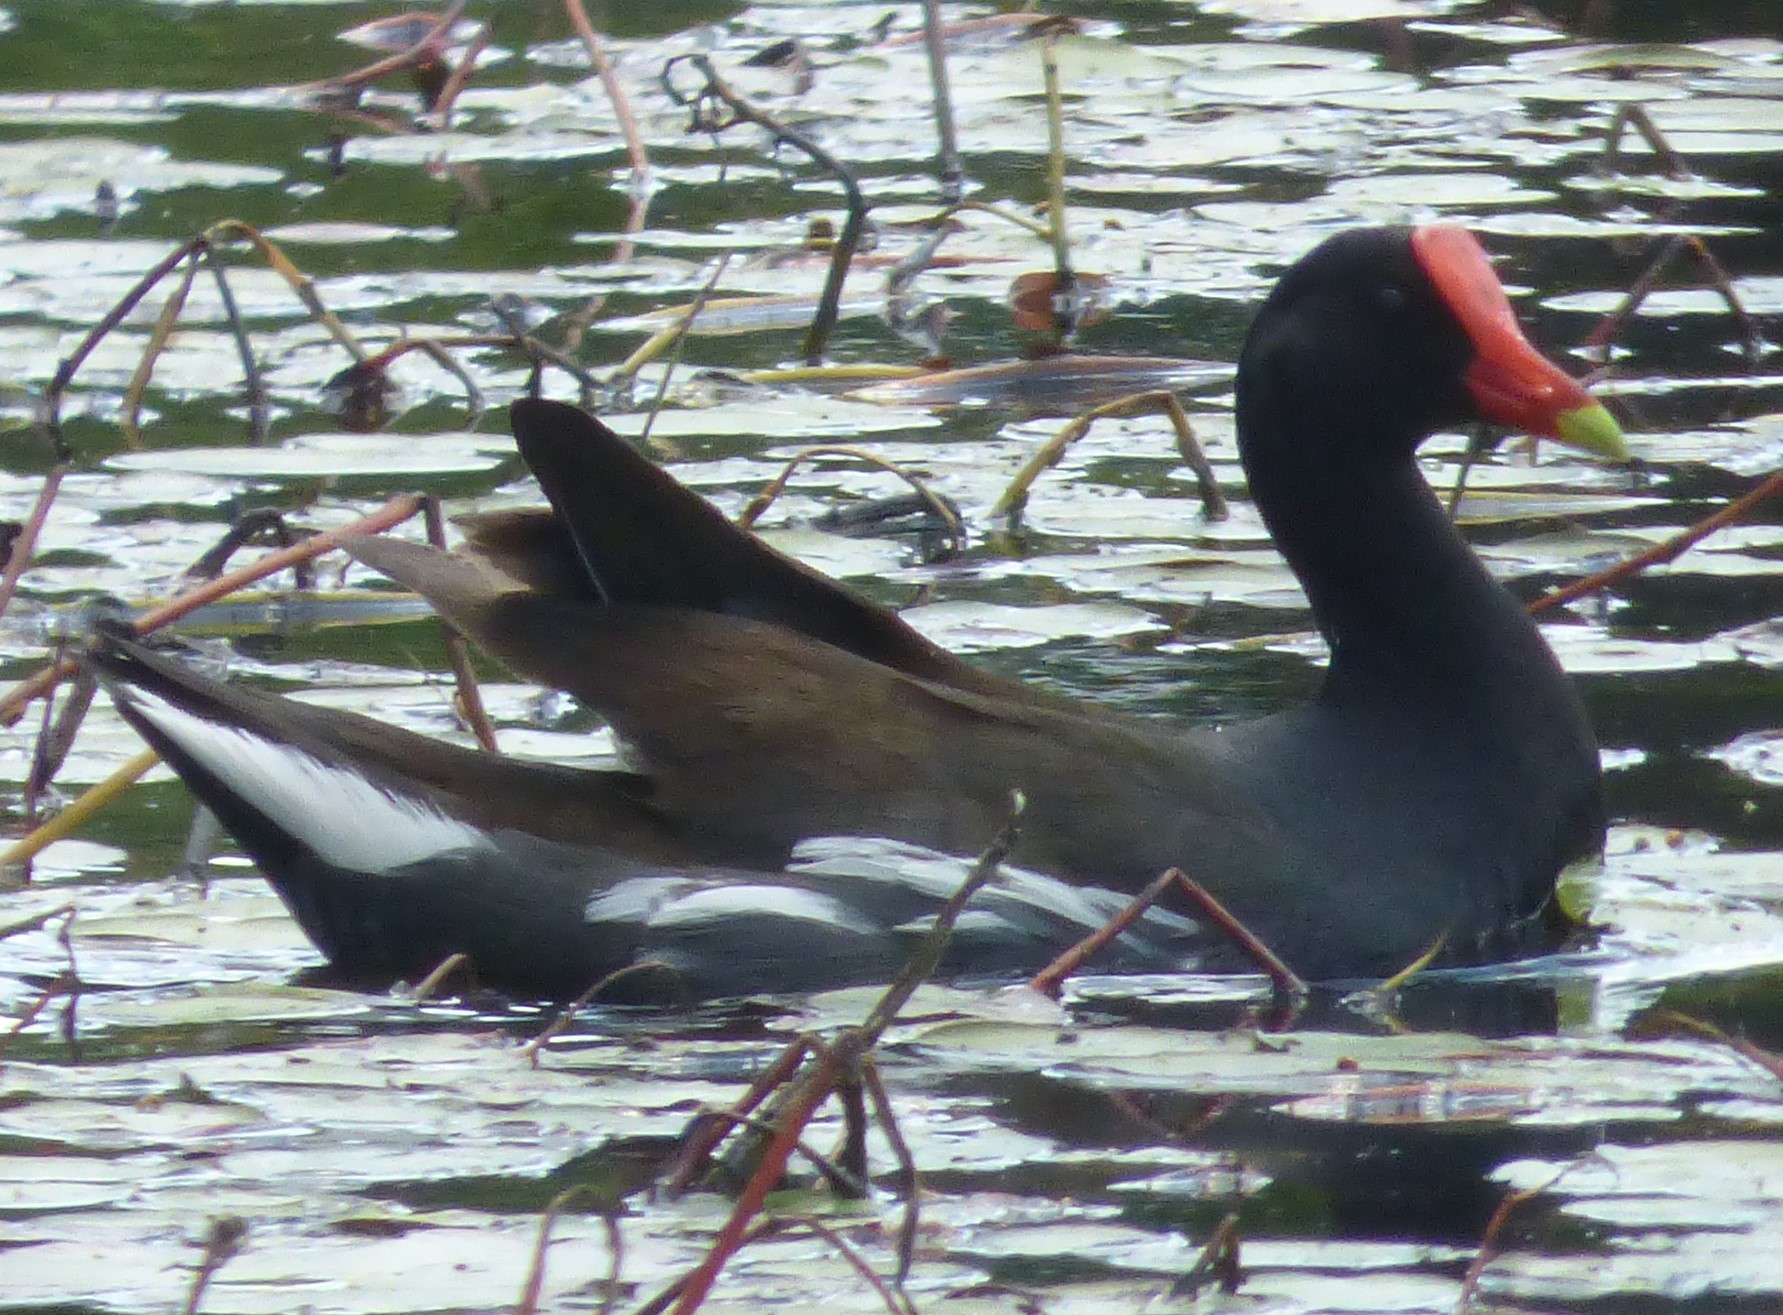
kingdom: Animalia
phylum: Chordata
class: Aves
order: Gruiformes
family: Rallidae
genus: Gallinula
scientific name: Gallinula chloropus
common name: Common moorhen
